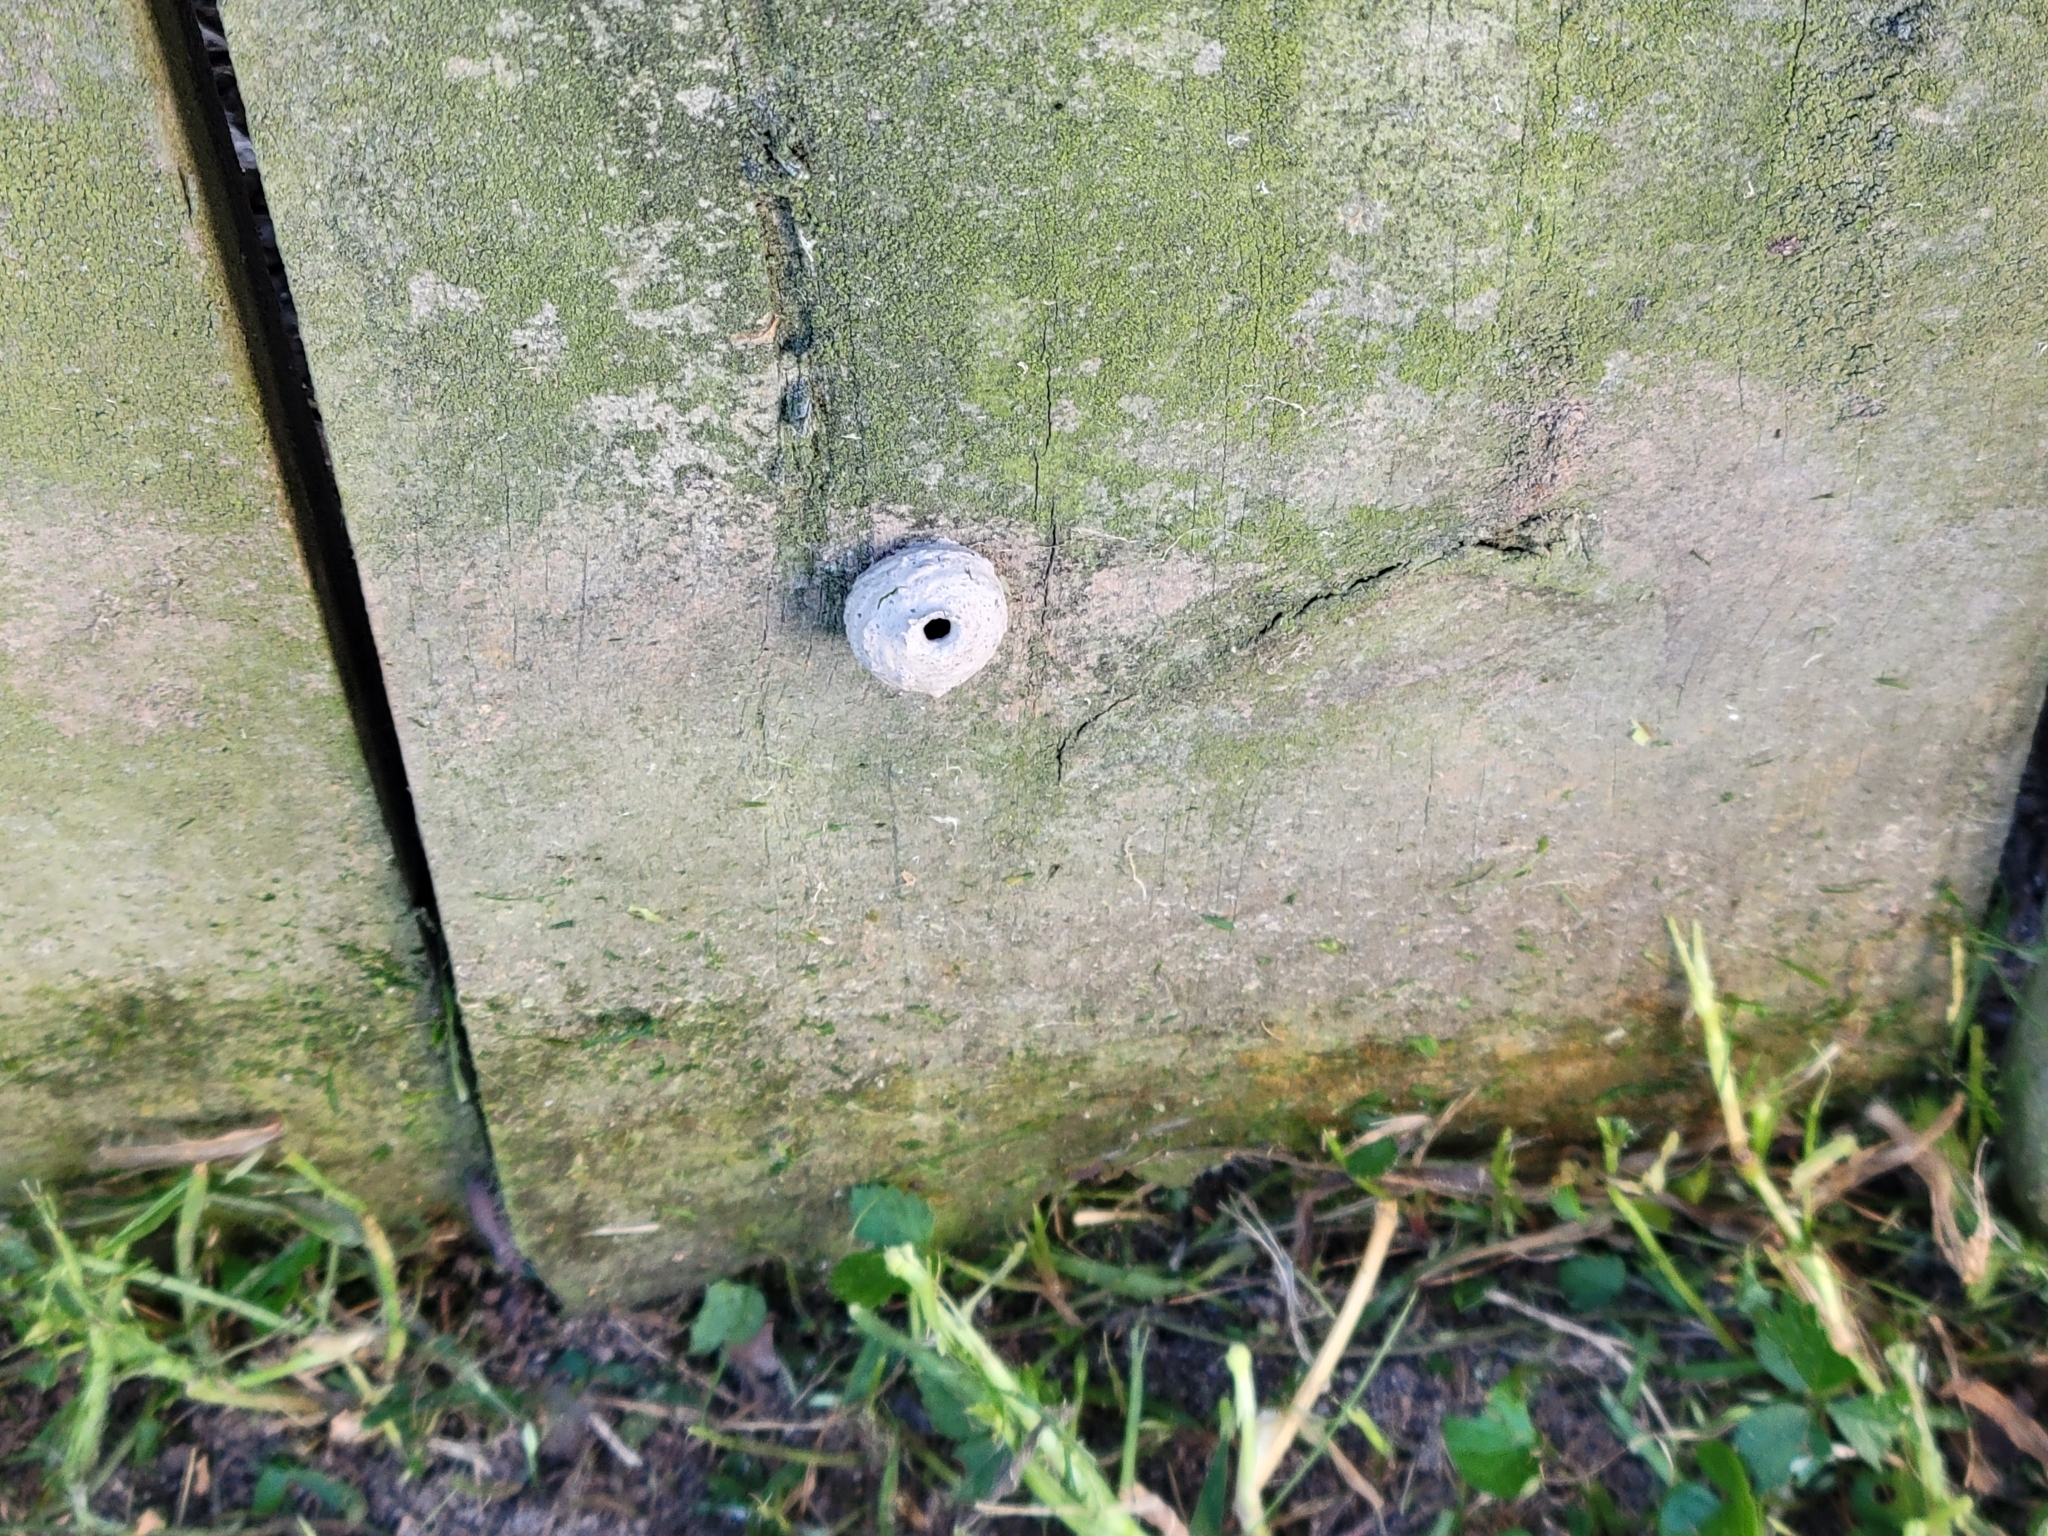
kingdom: Animalia
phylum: Arthropoda
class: Insecta
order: Hymenoptera
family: Vespidae
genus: Eumenes
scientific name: Eumenes
